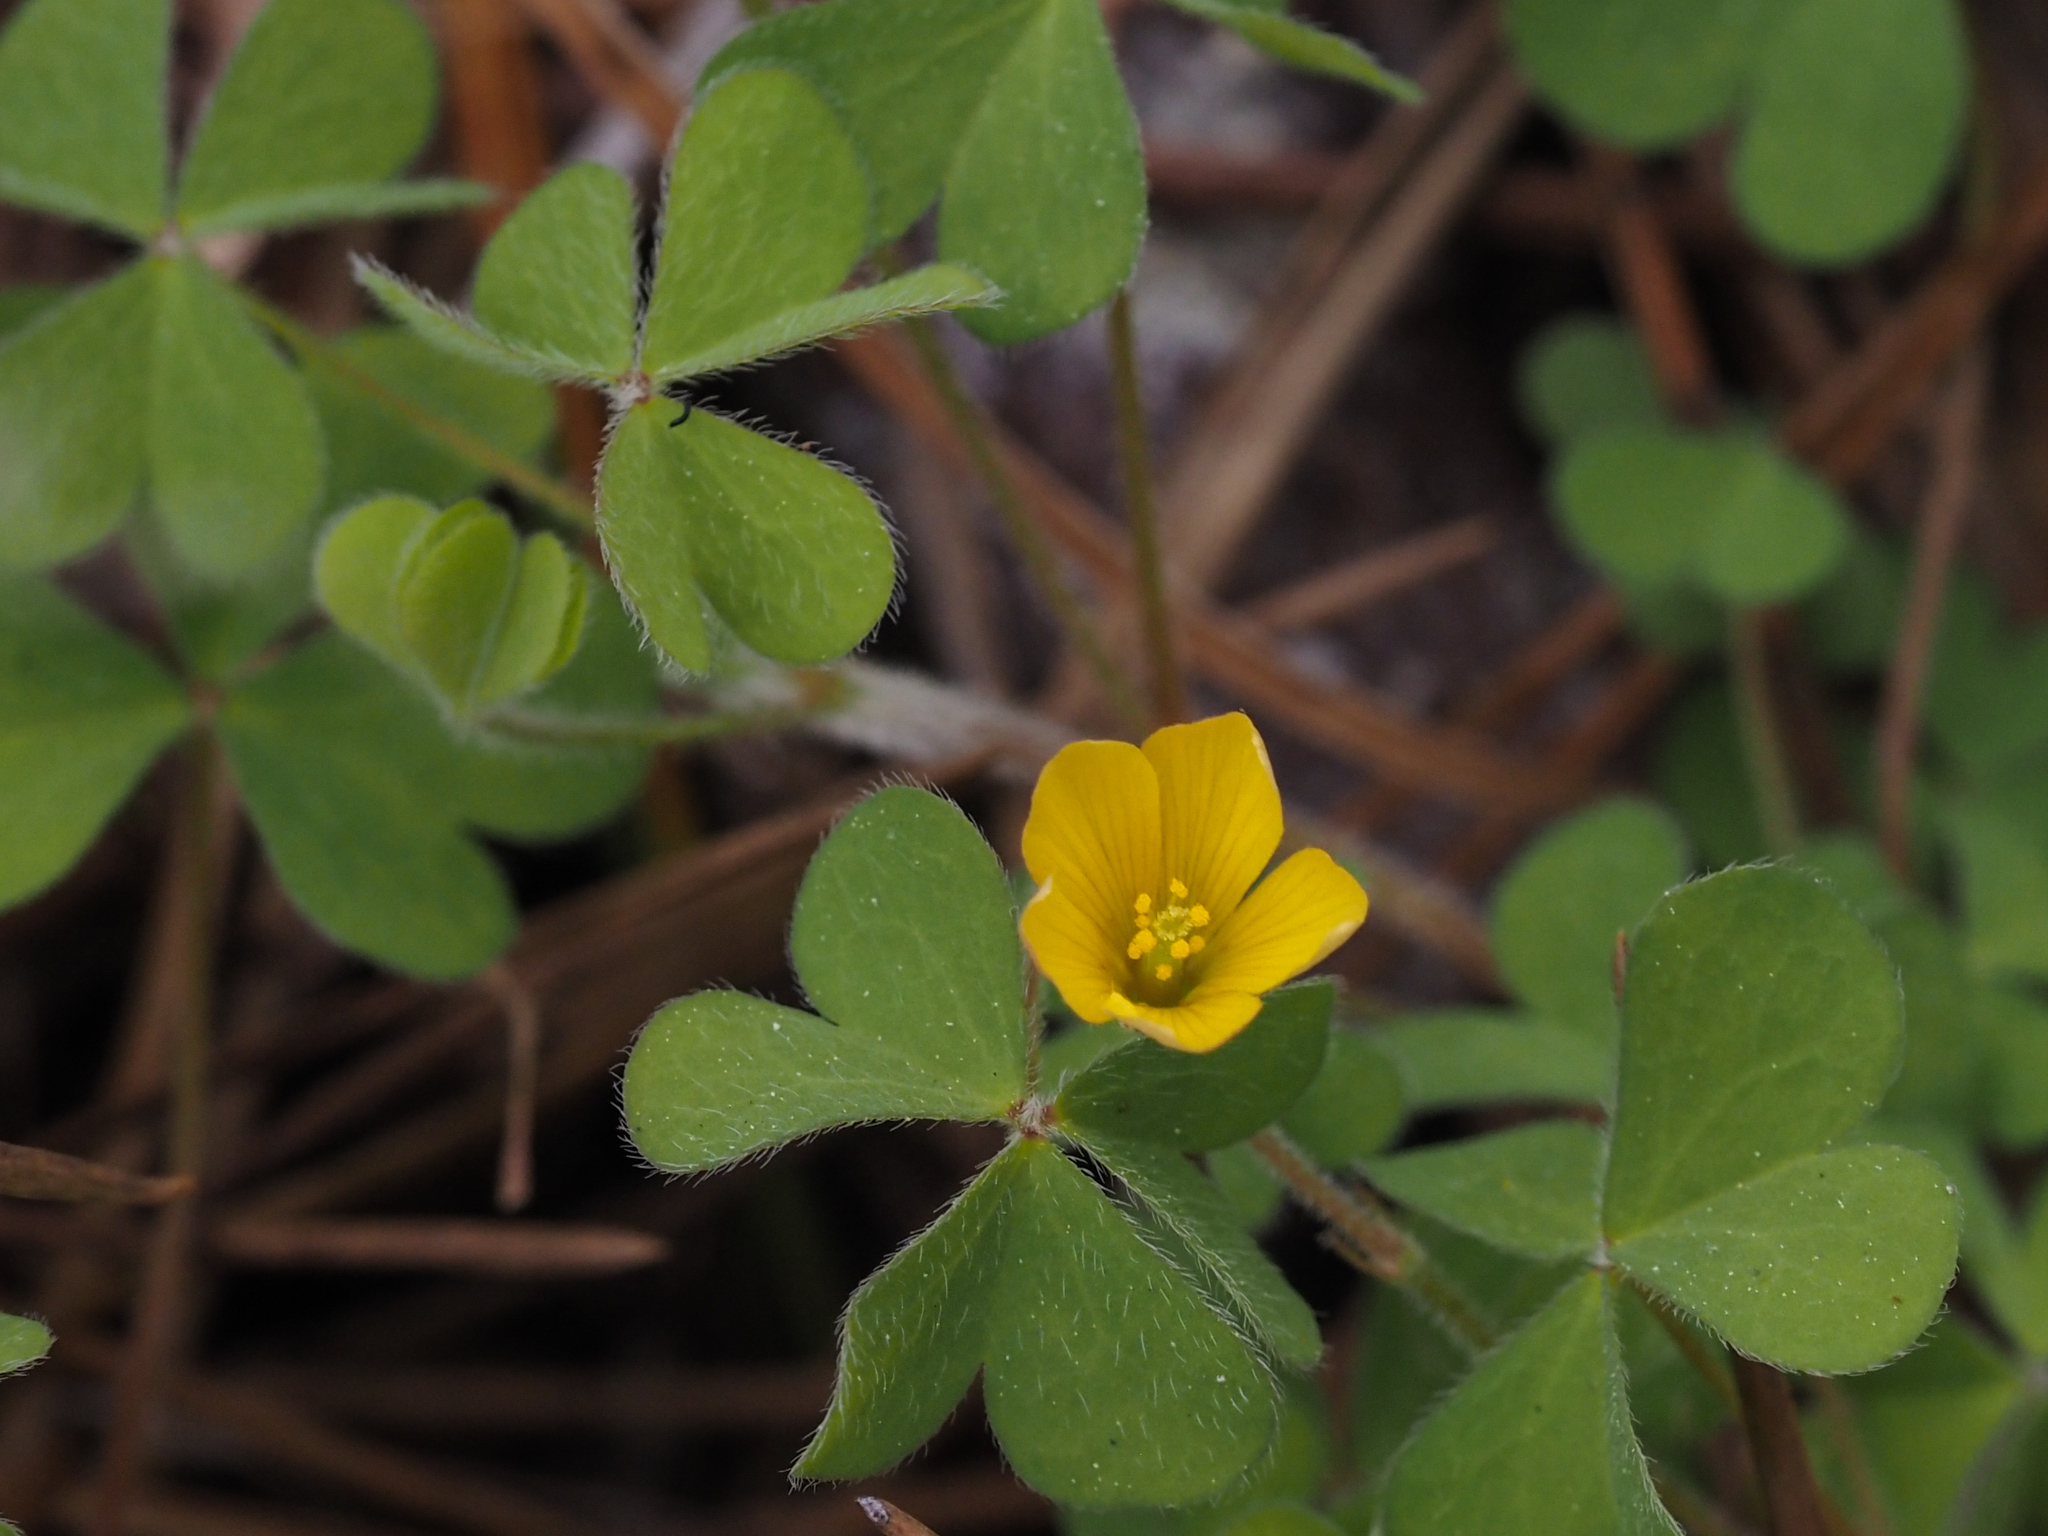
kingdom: Plantae
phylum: Tracheophyta
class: Magnoliopsida
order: Oxalidales
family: Oxalidaceae
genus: Oxalis
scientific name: Oxalis pilosa
